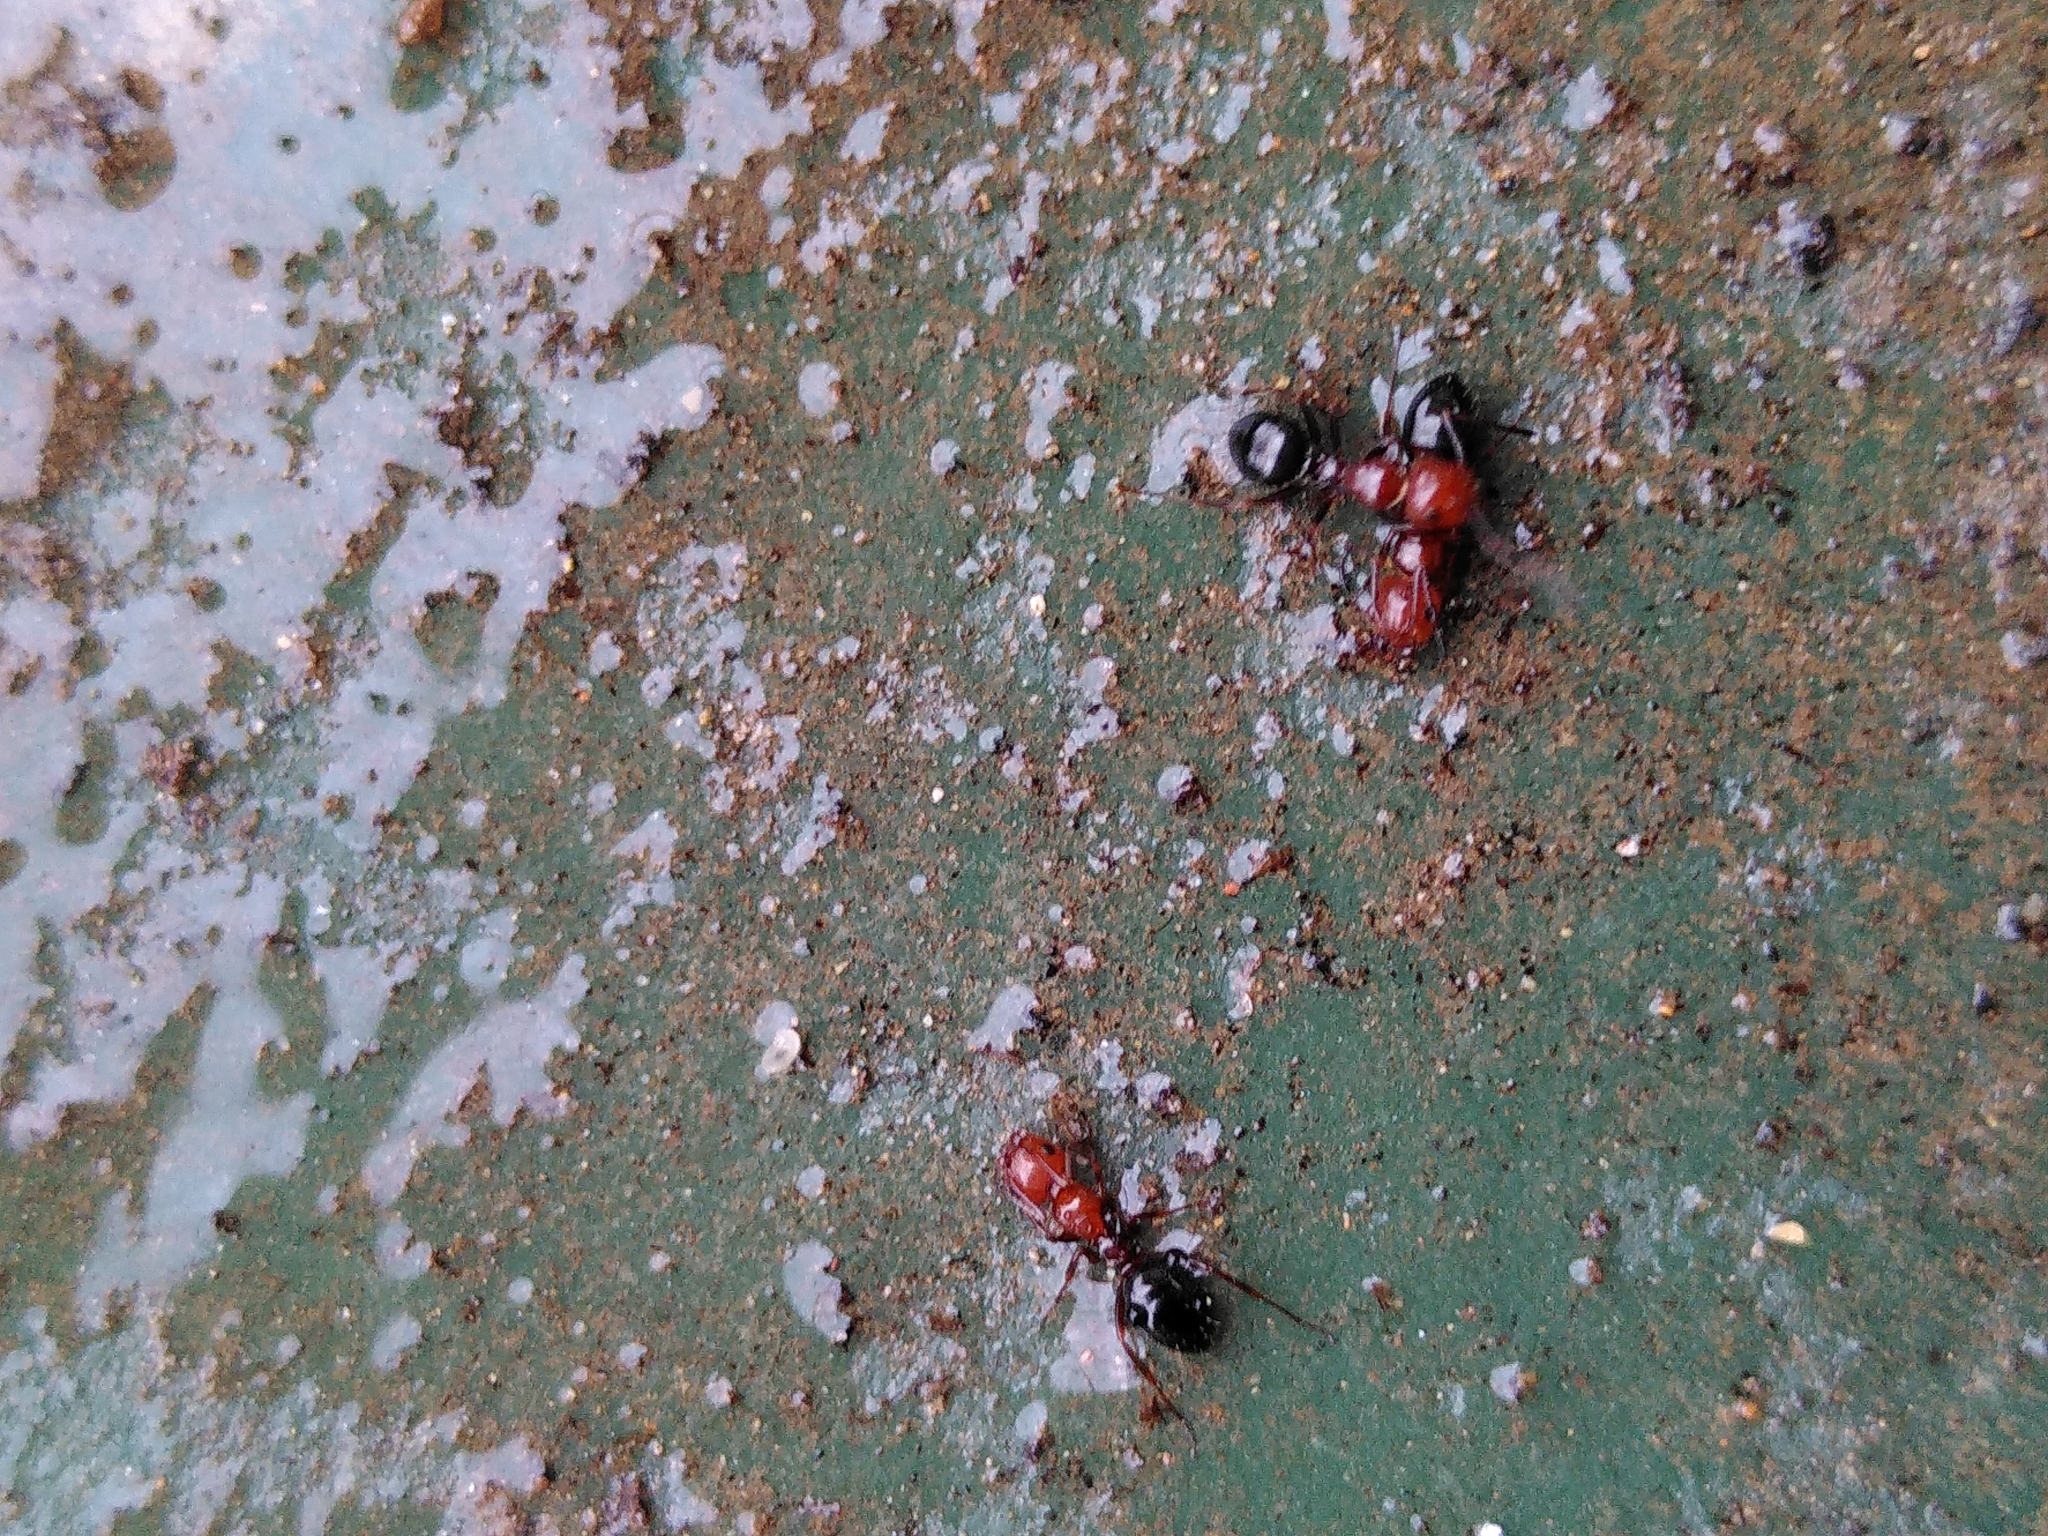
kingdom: Animalia
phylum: Arthropoda
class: Insecta
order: Hymenoptera
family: Formicidae
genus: Camponotus
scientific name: Camponotus lateralis
